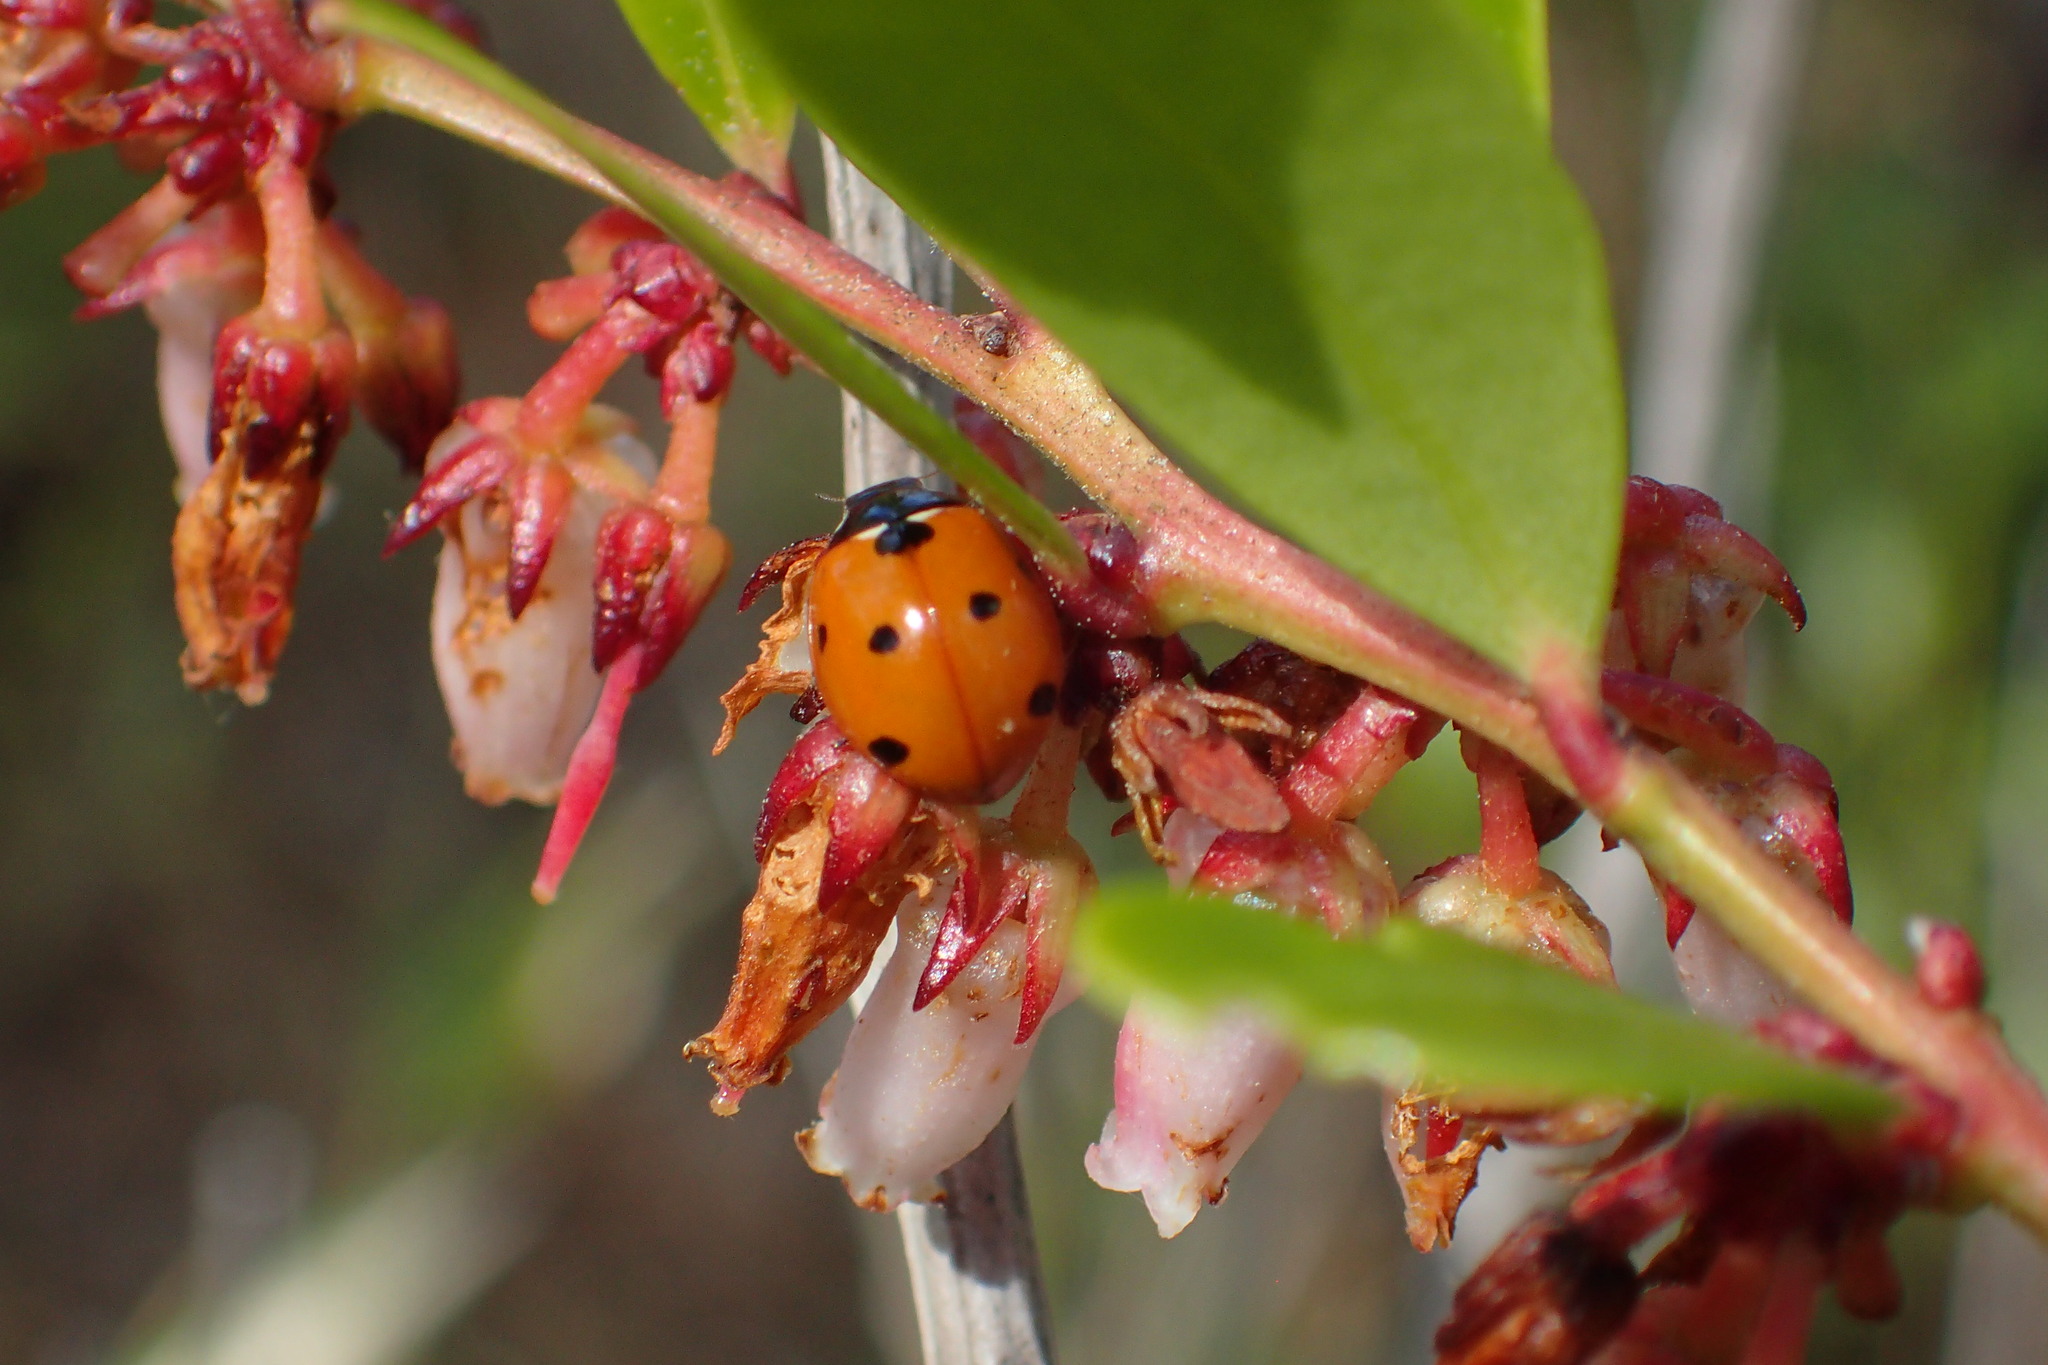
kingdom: Animalia
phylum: Arthropoda
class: Insecta
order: Coleoptera
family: Coccinellidae
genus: Coccinella
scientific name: Coccinella septempunctata
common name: Sevenspotted lady beetle
